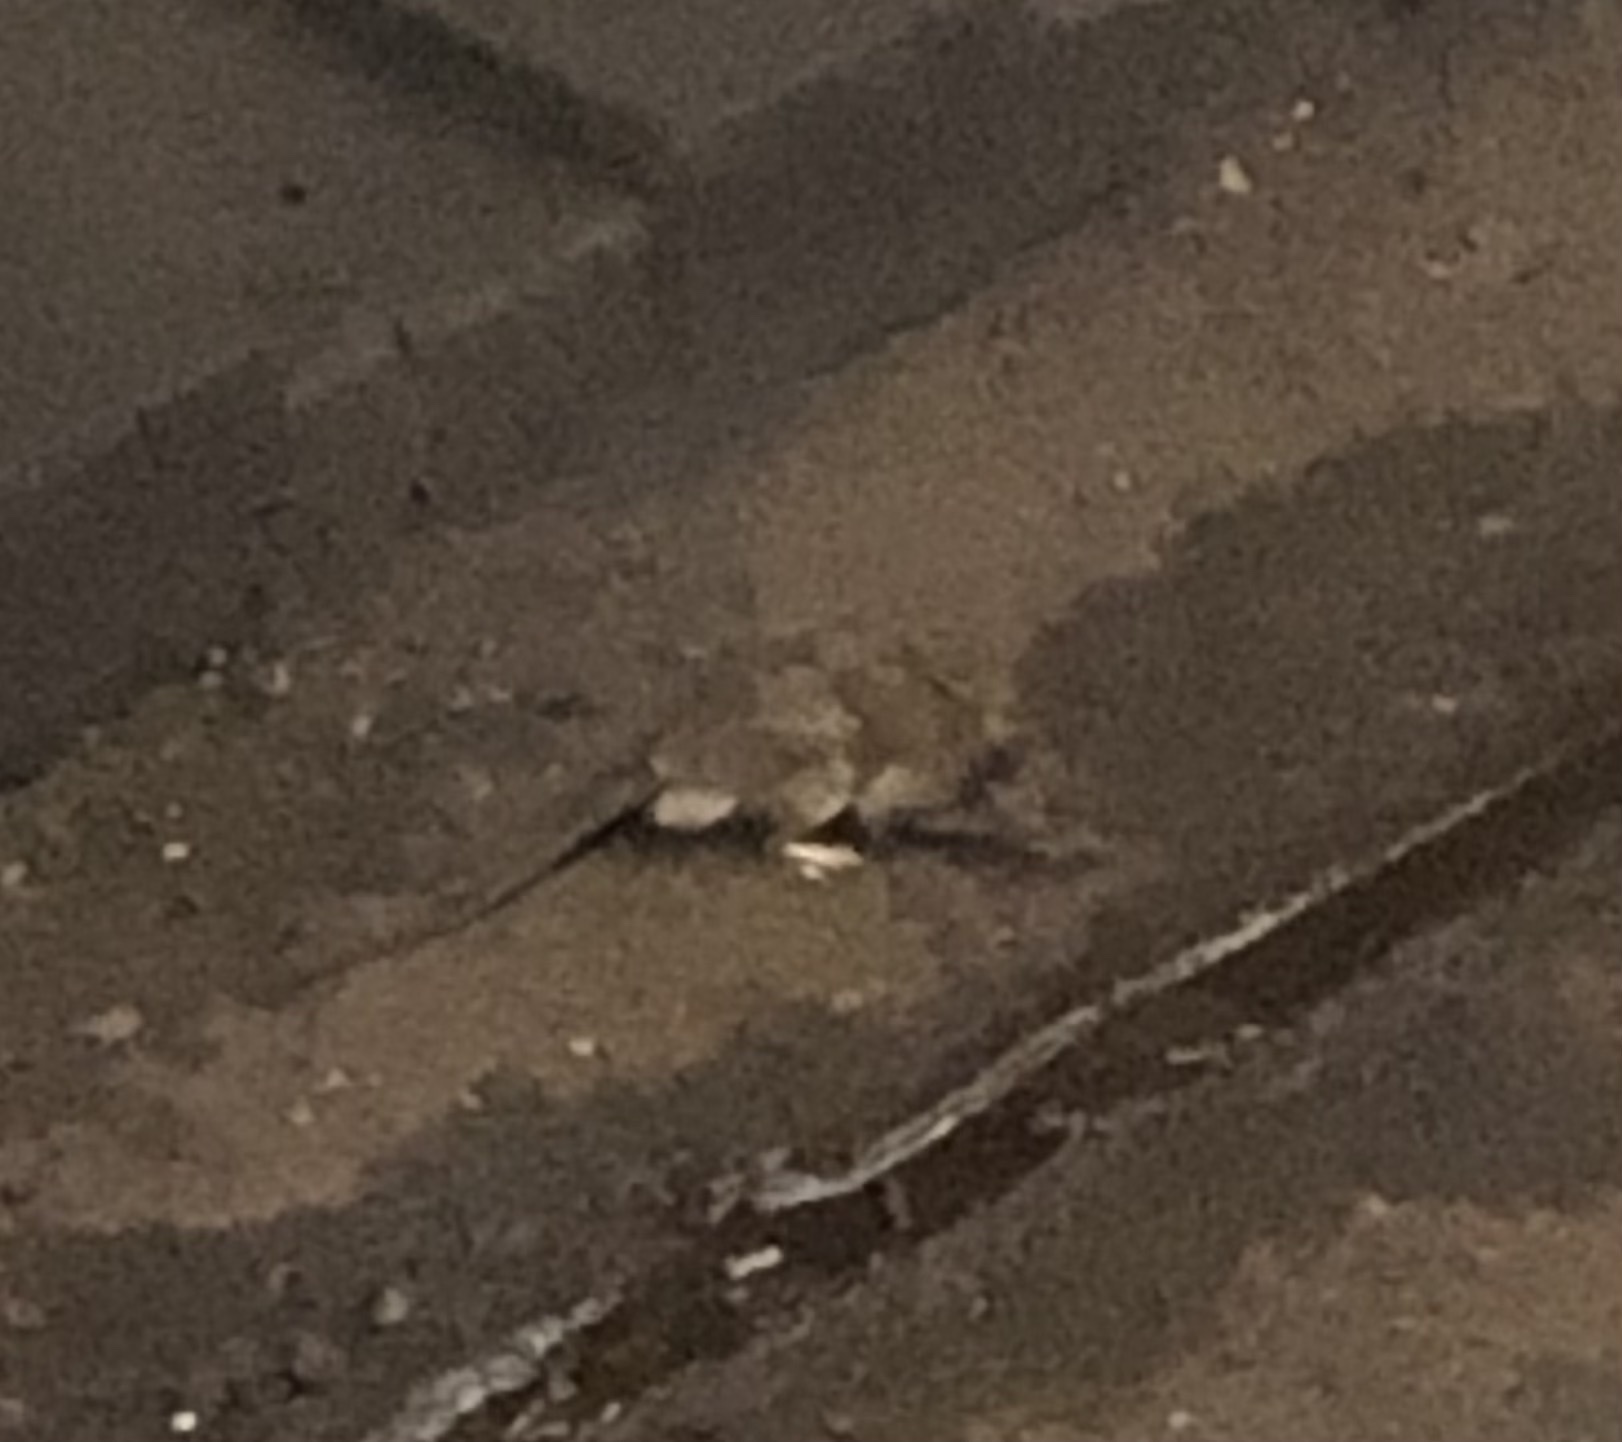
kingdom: Animalia
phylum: Chordata
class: Mammalia
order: Rodentia
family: Muridae
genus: Rattus
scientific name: Rattus norvegicus
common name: Brown rat
